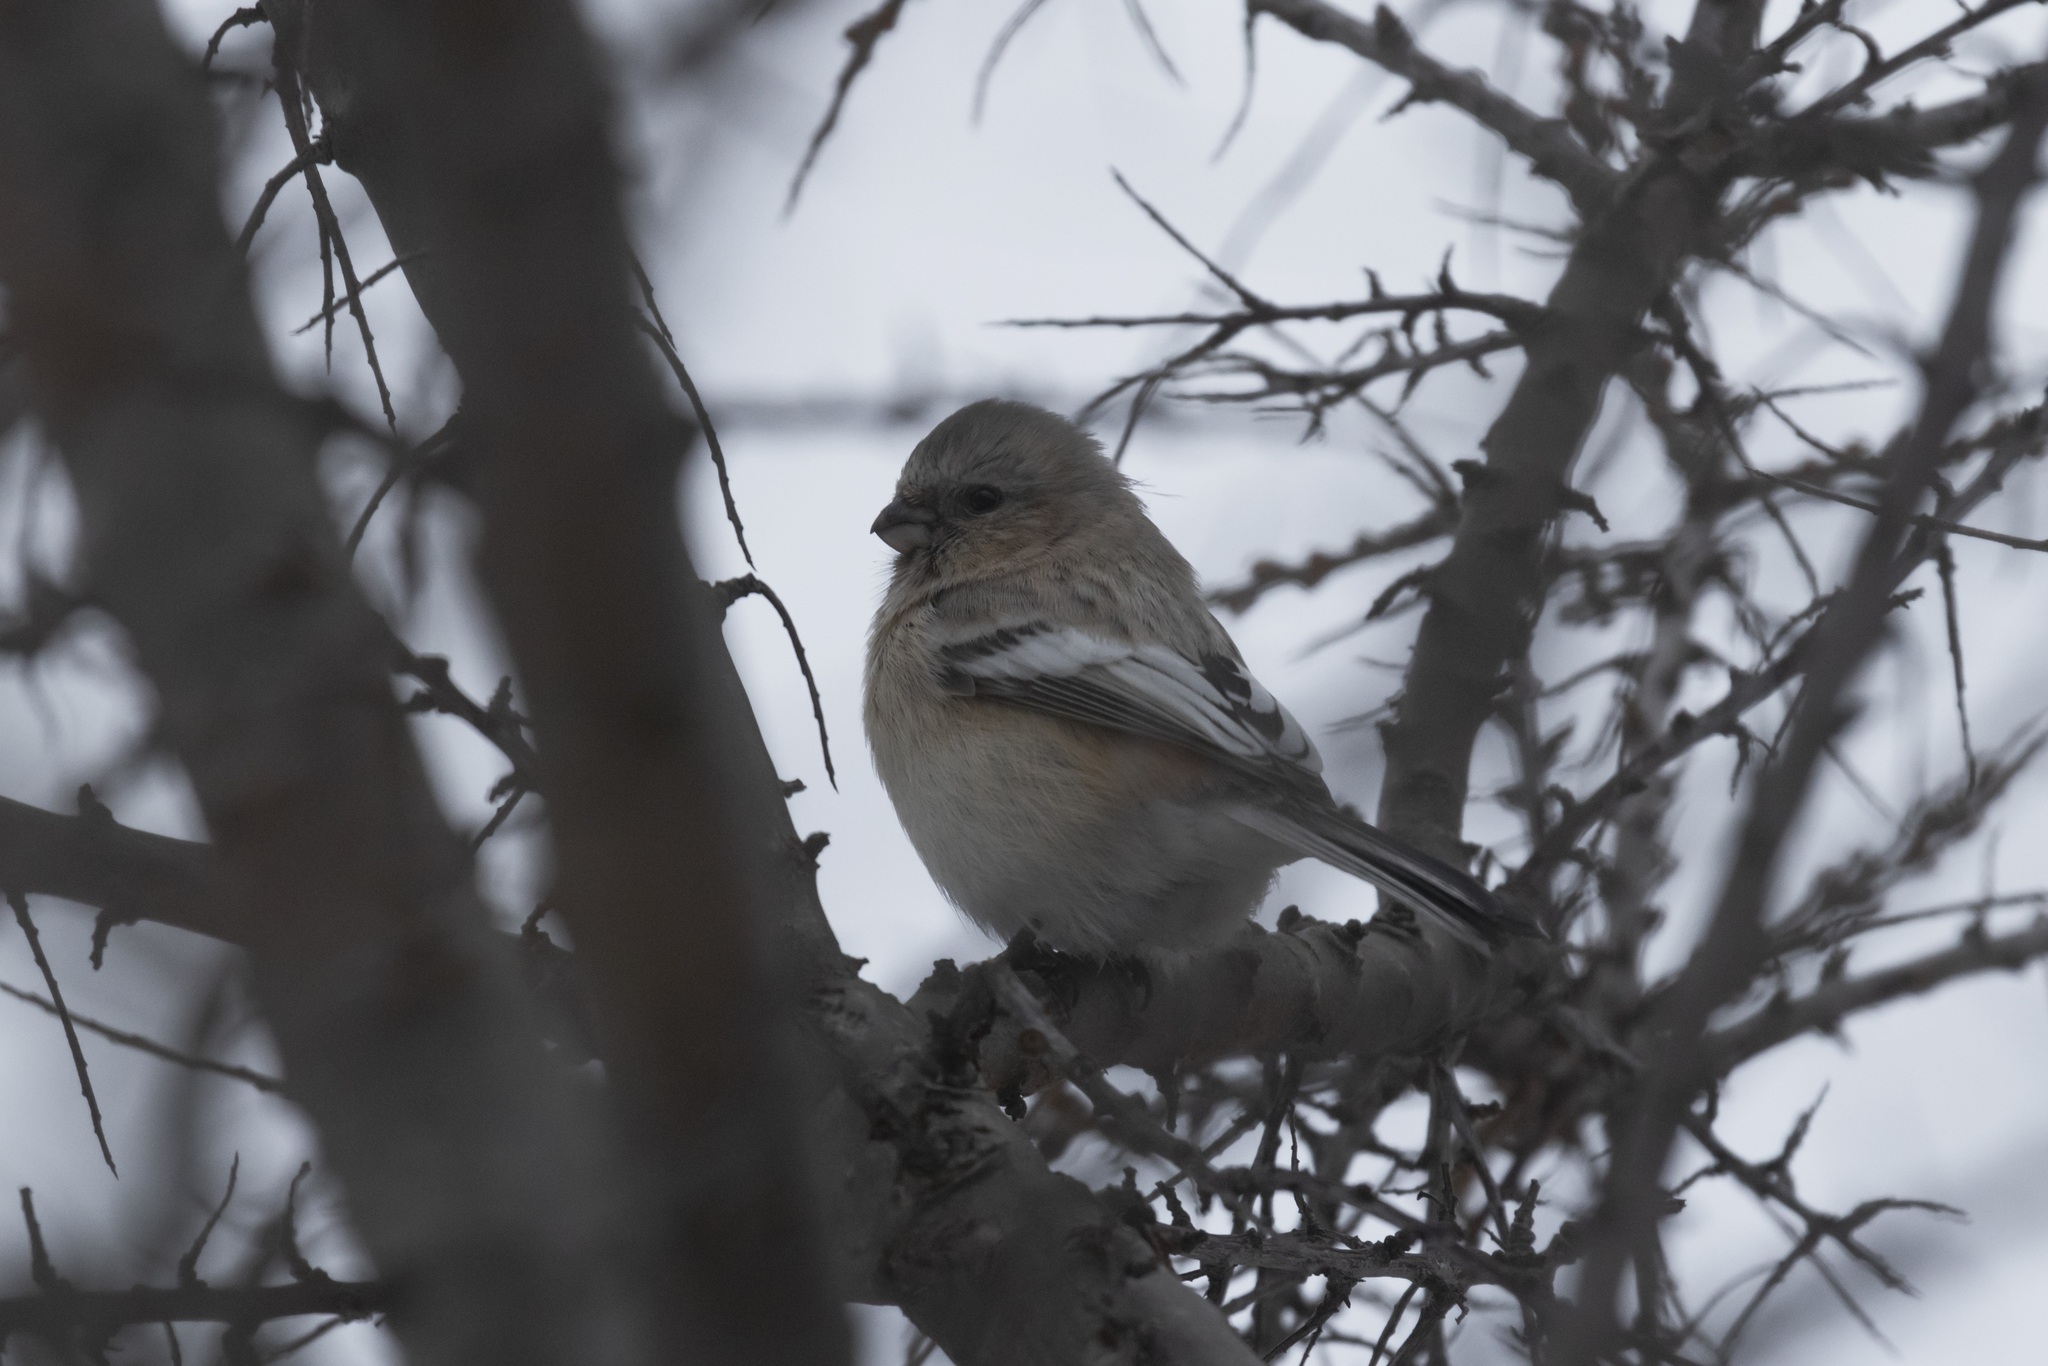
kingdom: Animalia
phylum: Chordata
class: Aves
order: Passeriformes
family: Fringillidae
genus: Carpodacus
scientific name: Carpodacus sibiricus
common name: Long-tailed rosefinch
